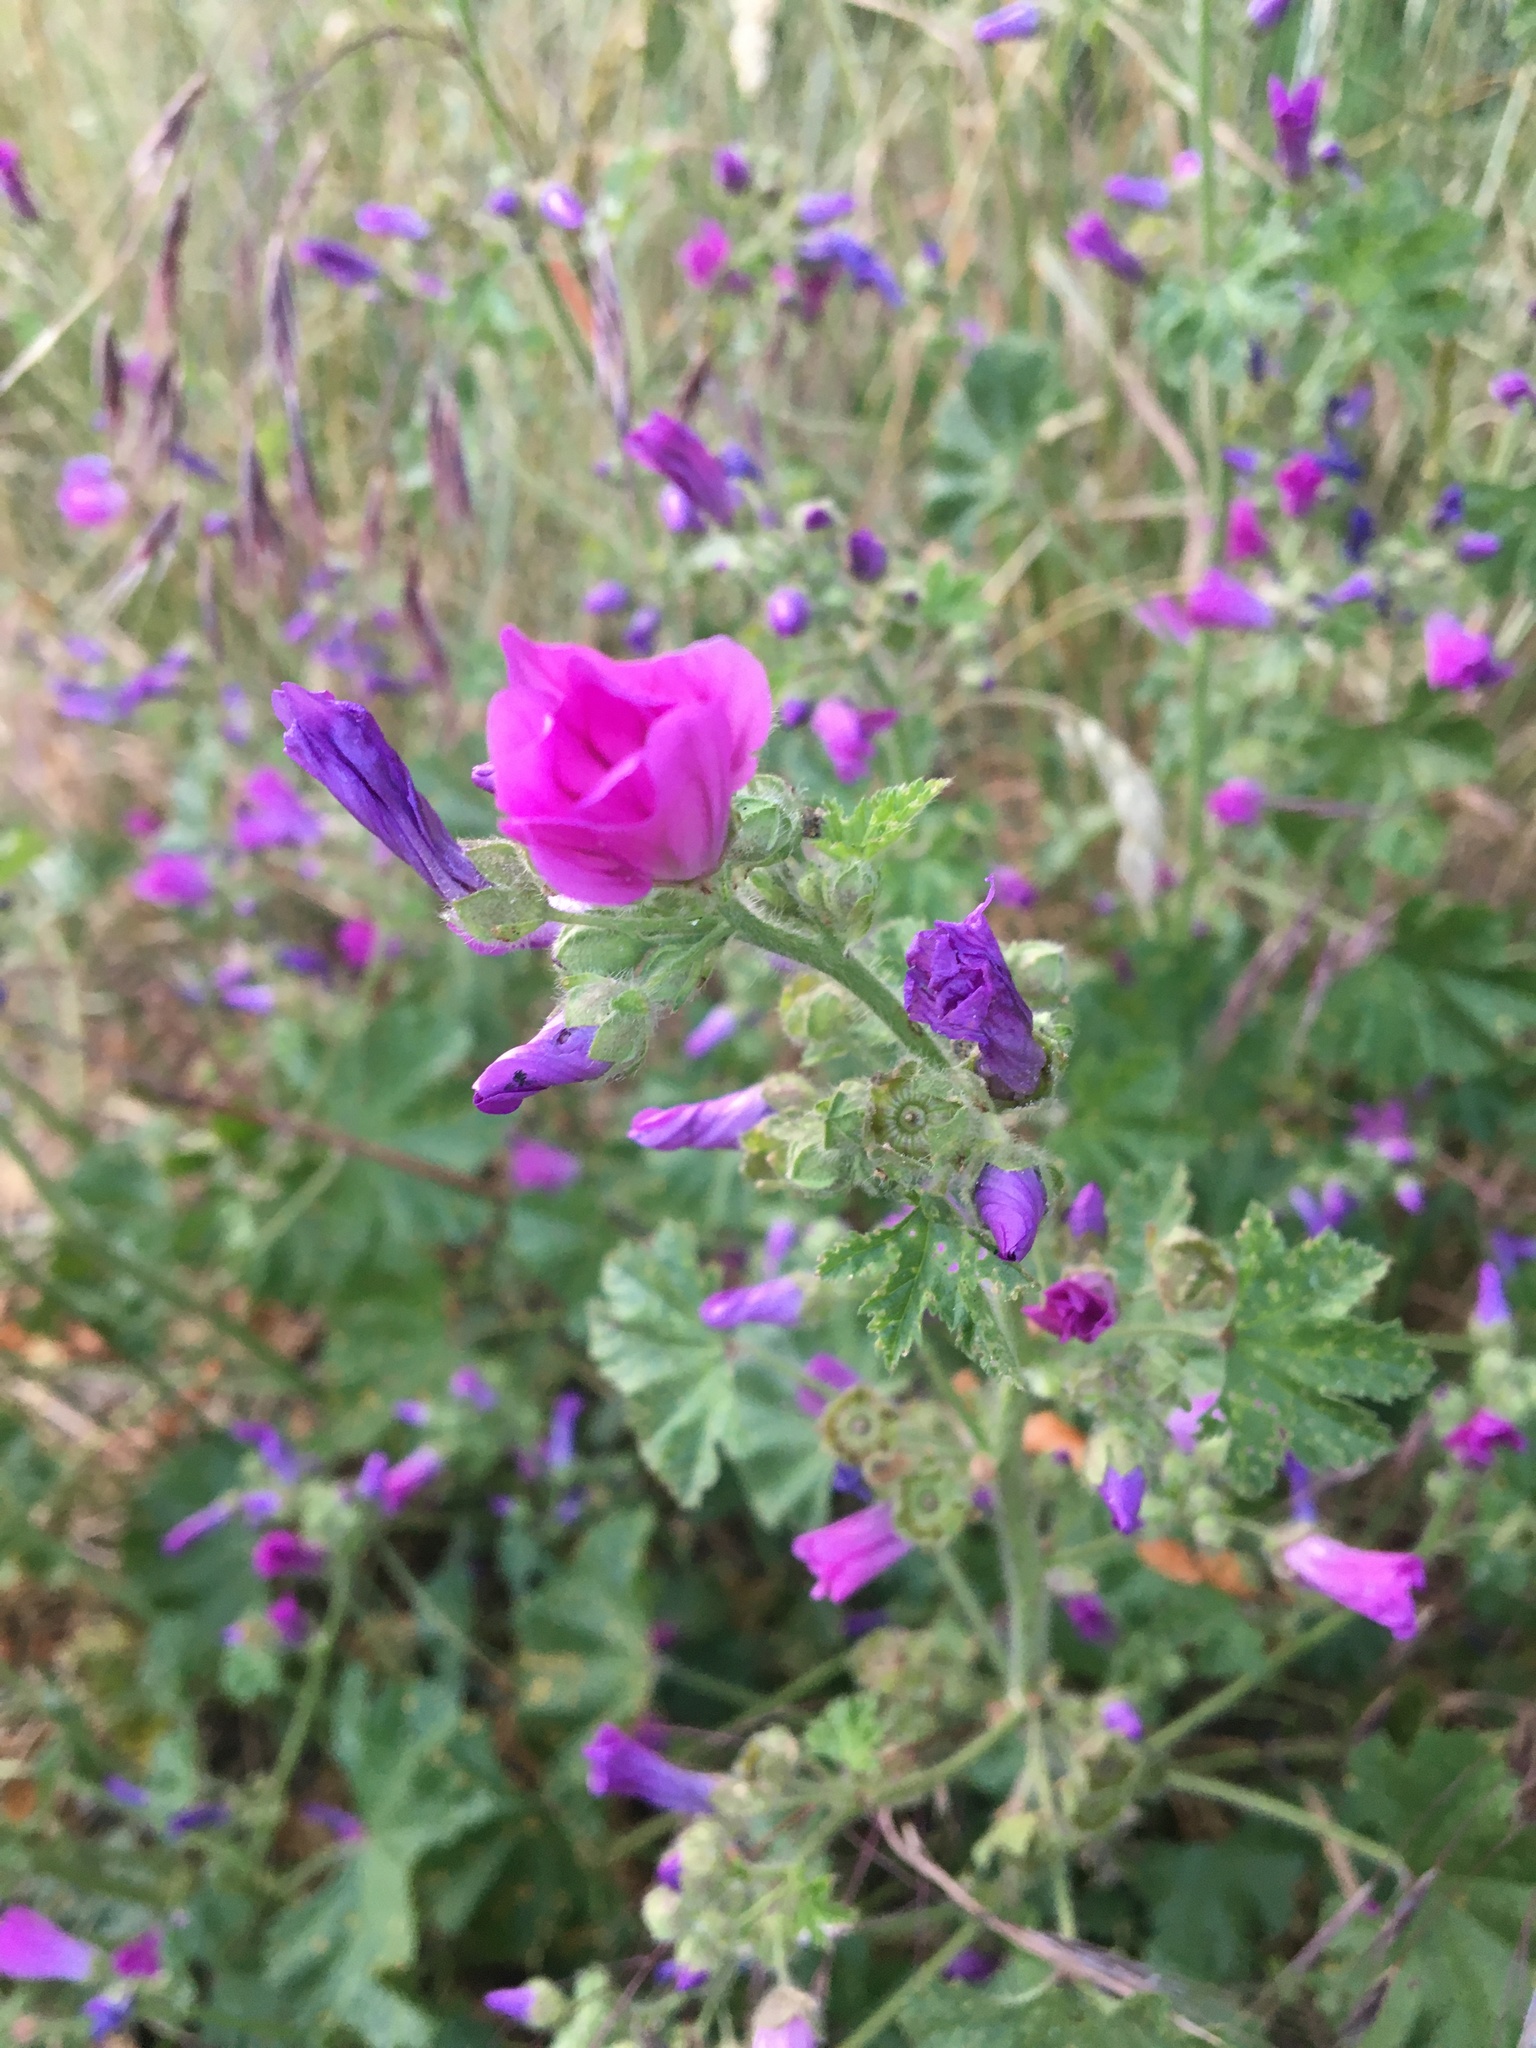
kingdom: Plantae
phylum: Tracheophyta
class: Magnoliopsida
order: Malvales
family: Malvaceae
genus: Malva
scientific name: Malva sylvestris
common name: Common mallow
